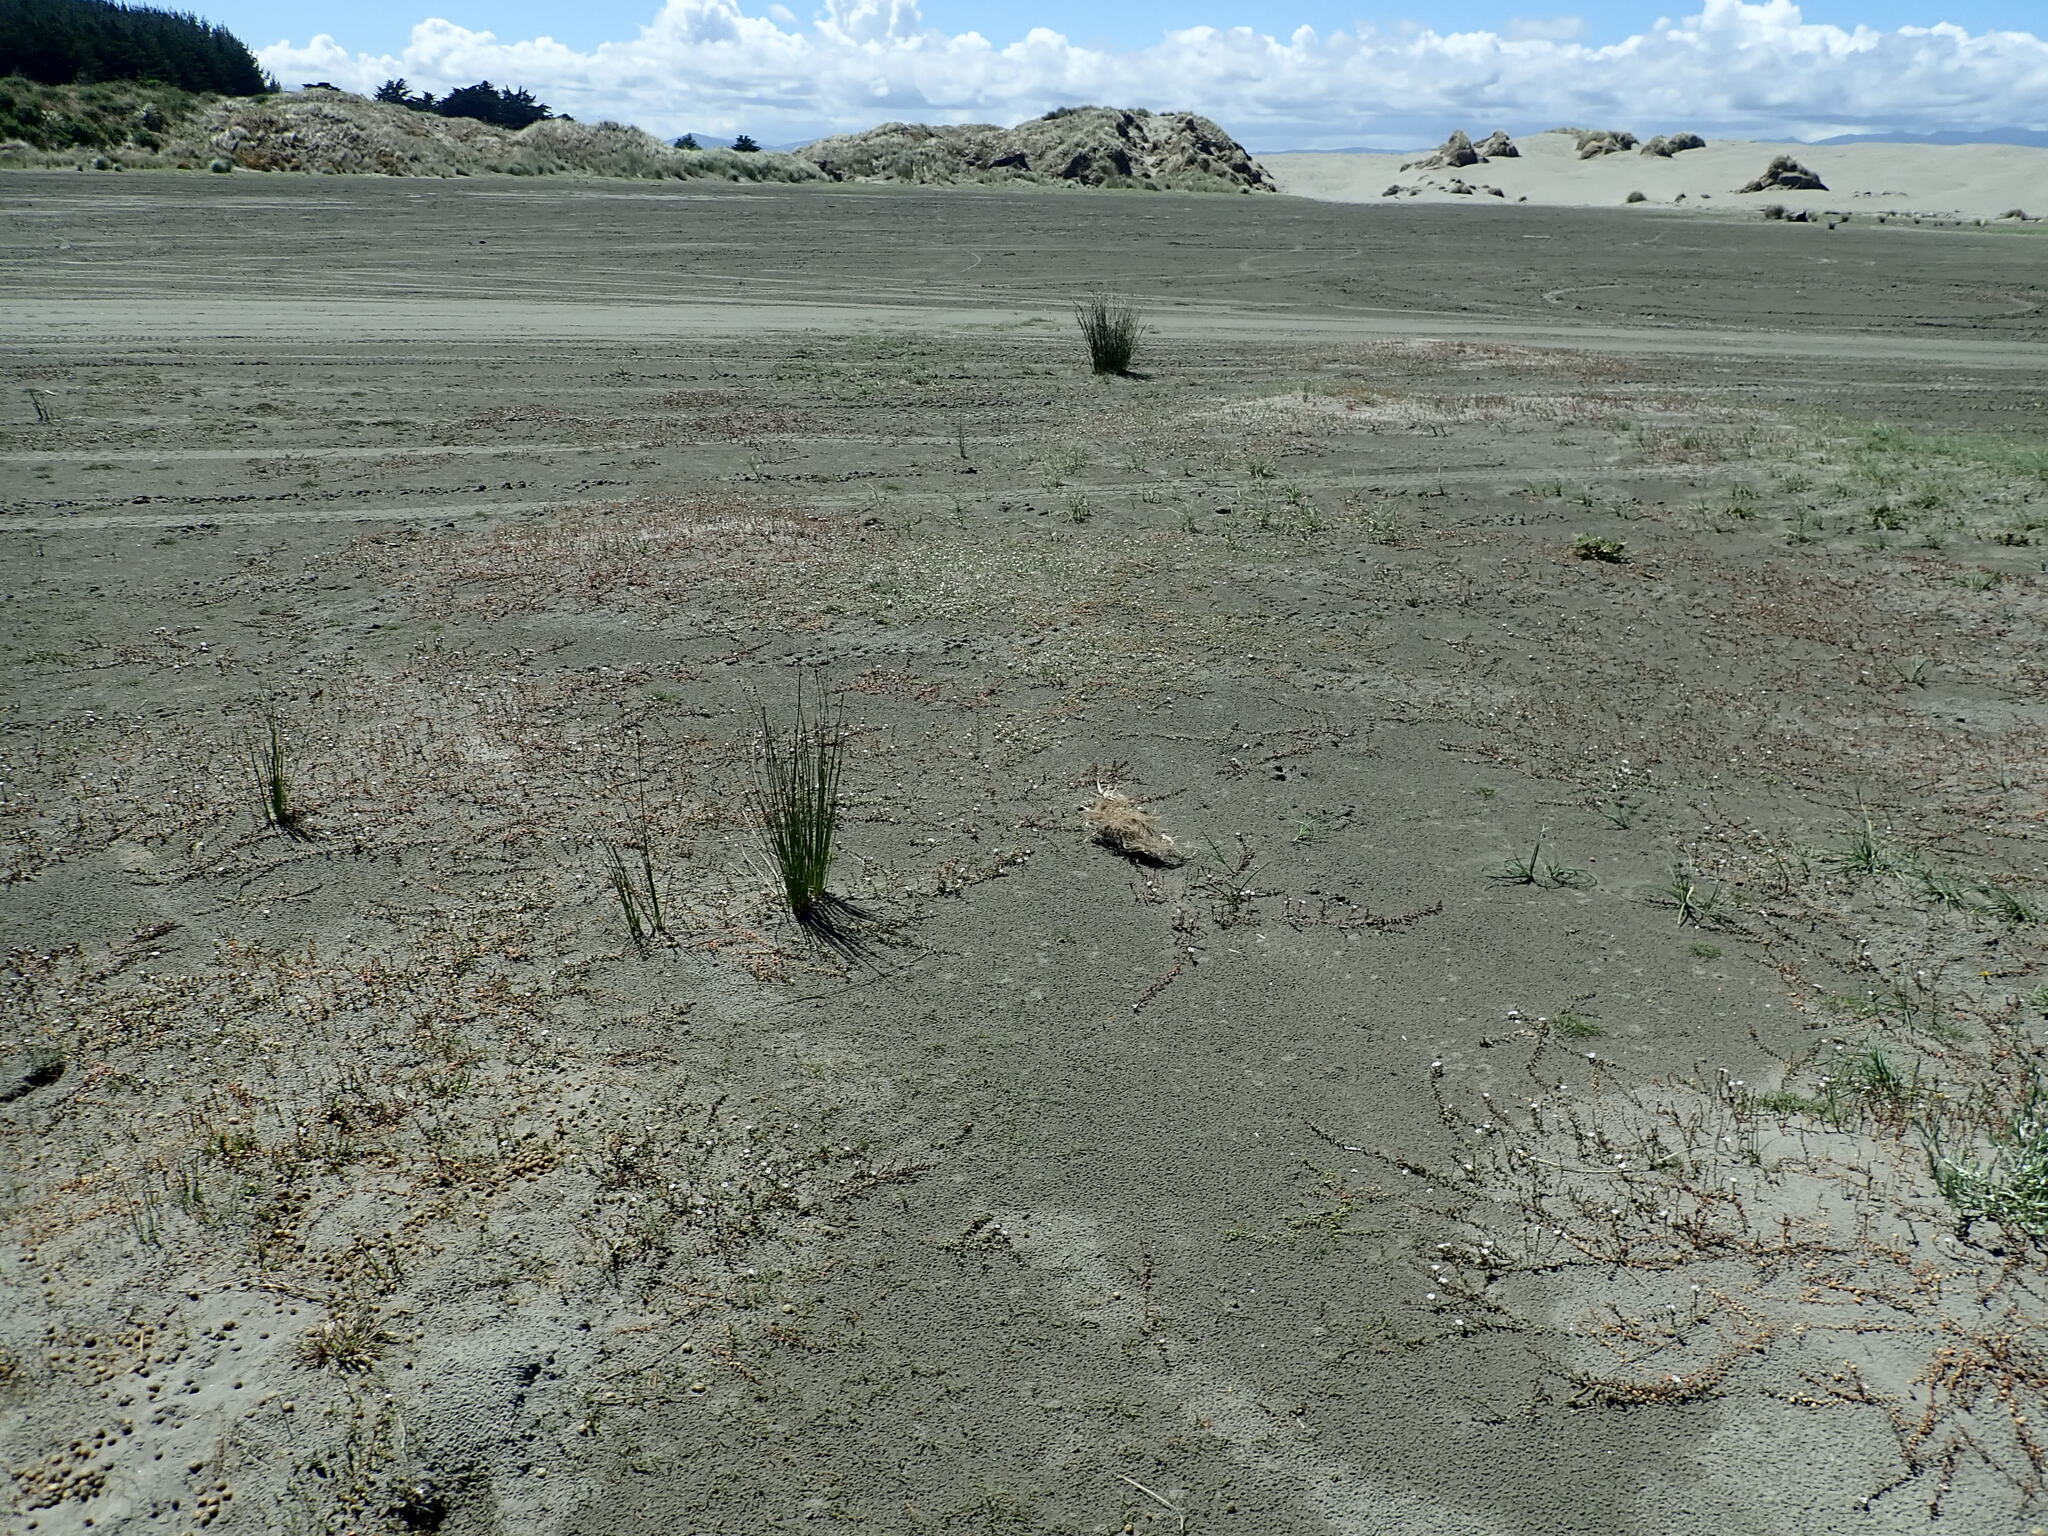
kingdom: Plantae
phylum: Tracheophyta
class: Magnoliopsida
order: Ericales
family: Primulaceae
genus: Samolus
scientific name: Samolus repens
